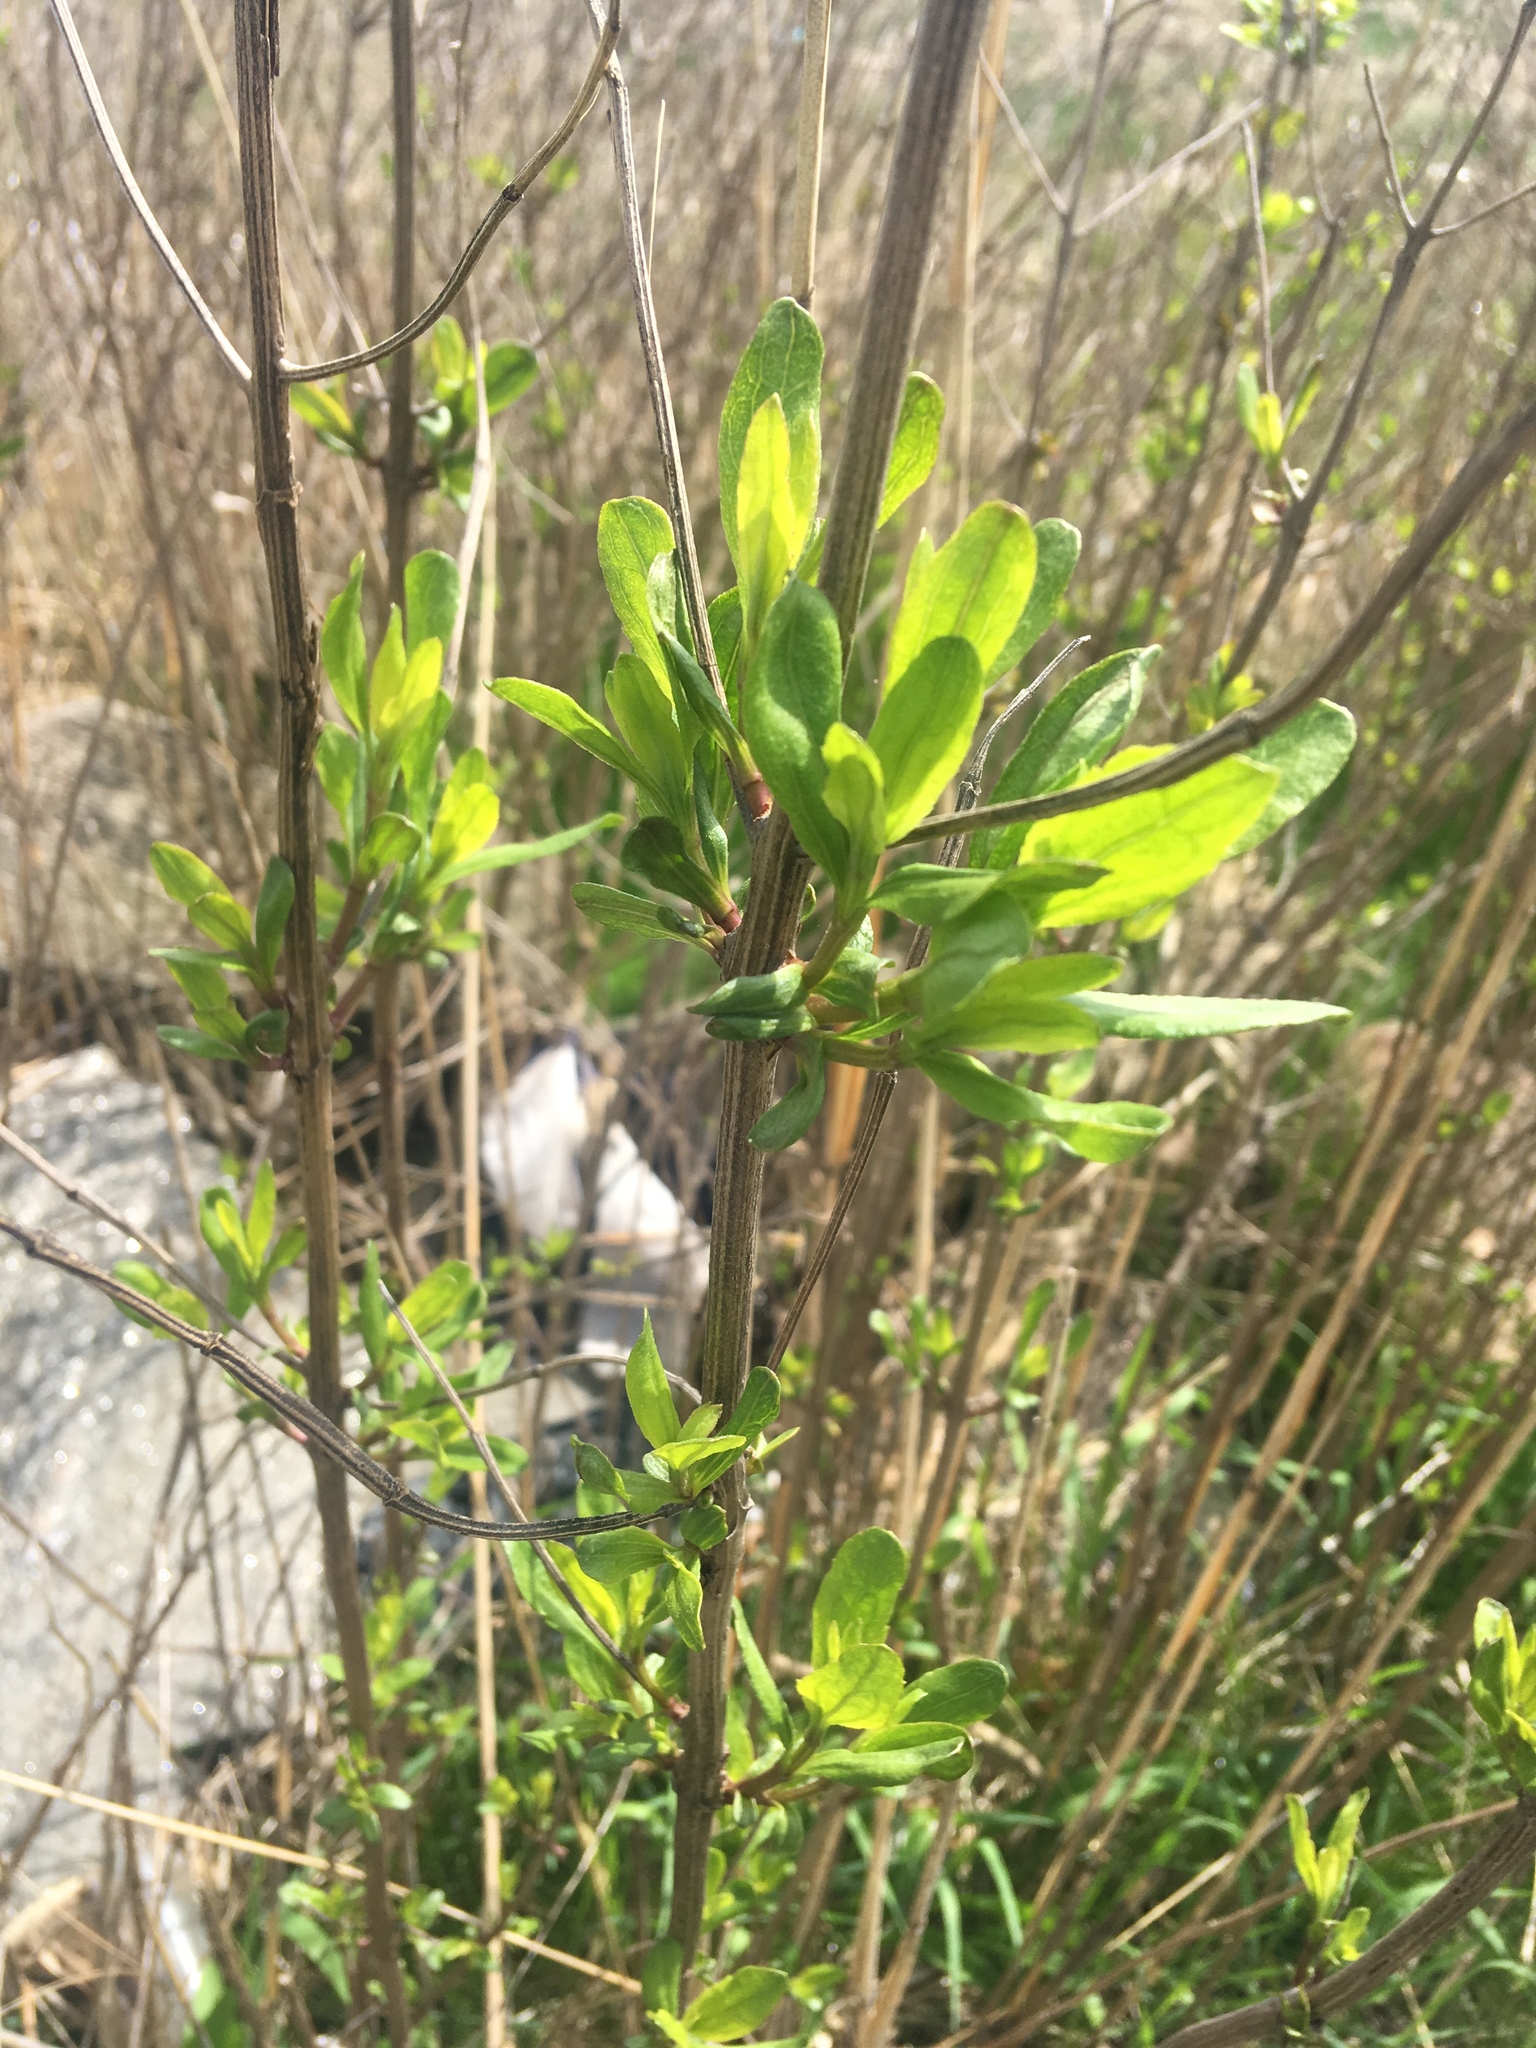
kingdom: Plantae
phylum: Tracheophyta
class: Magnoliopsida
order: Asterales
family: Asteraceae
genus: Baccharis
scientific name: Baccharis halimifolia
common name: Eastern baccharis
